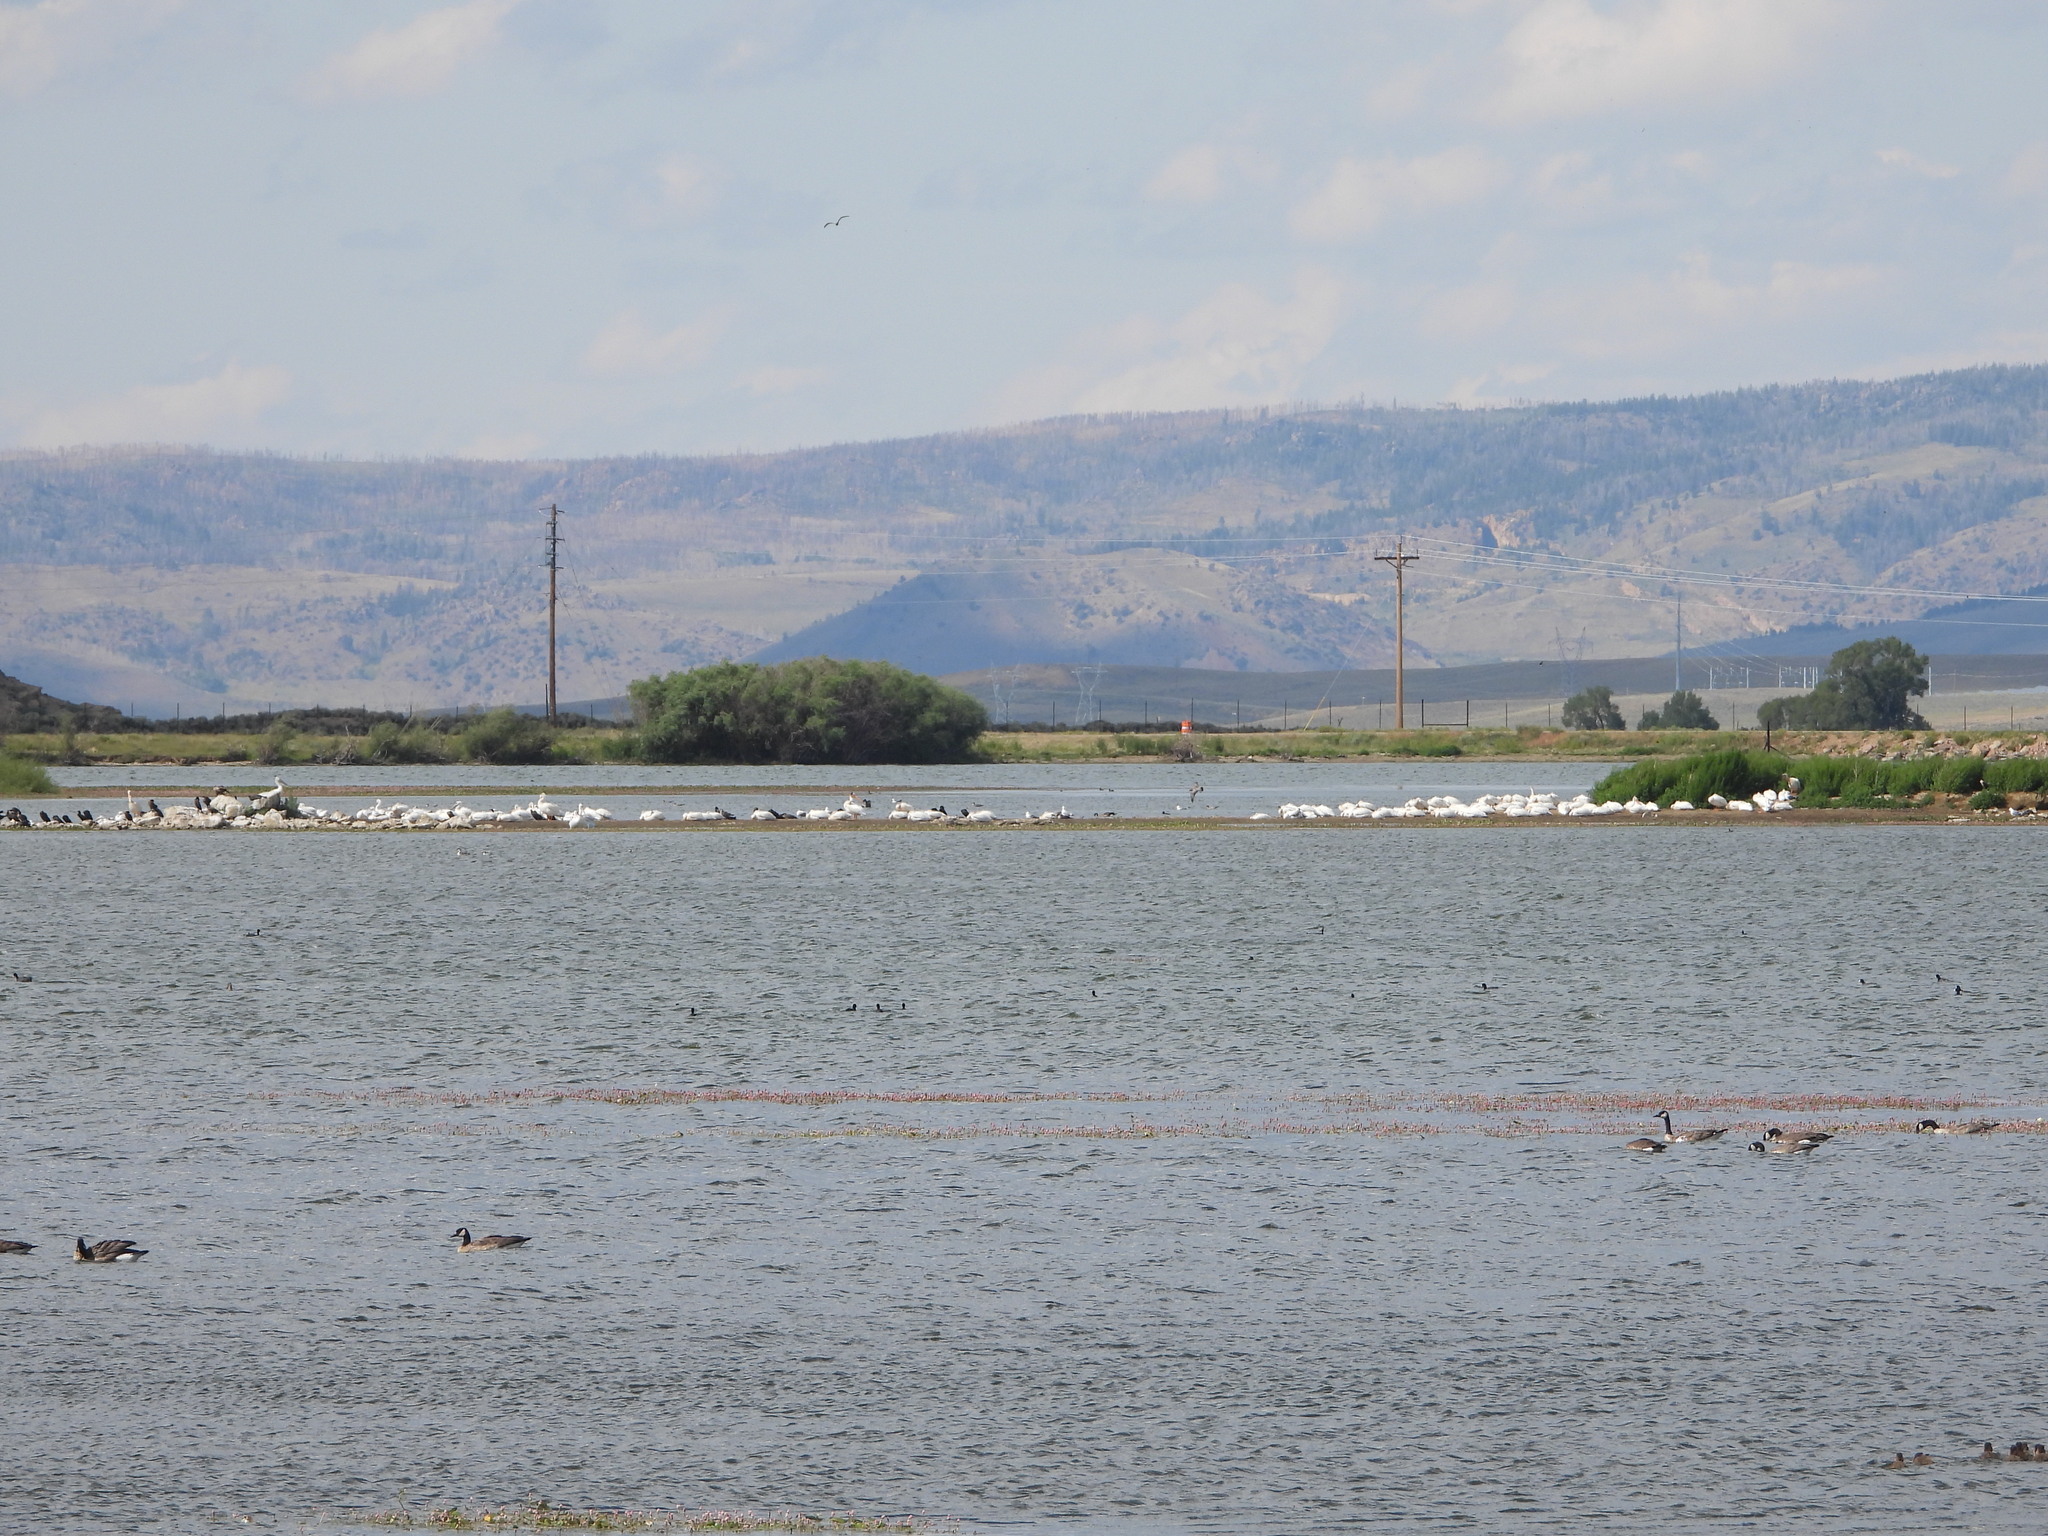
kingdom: Animalia
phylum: Chordata
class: Aves
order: Pelecaniformes
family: Pelecanidae
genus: Pelecanus
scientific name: Pelecanus erythrorhynchos
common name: American white pelican
